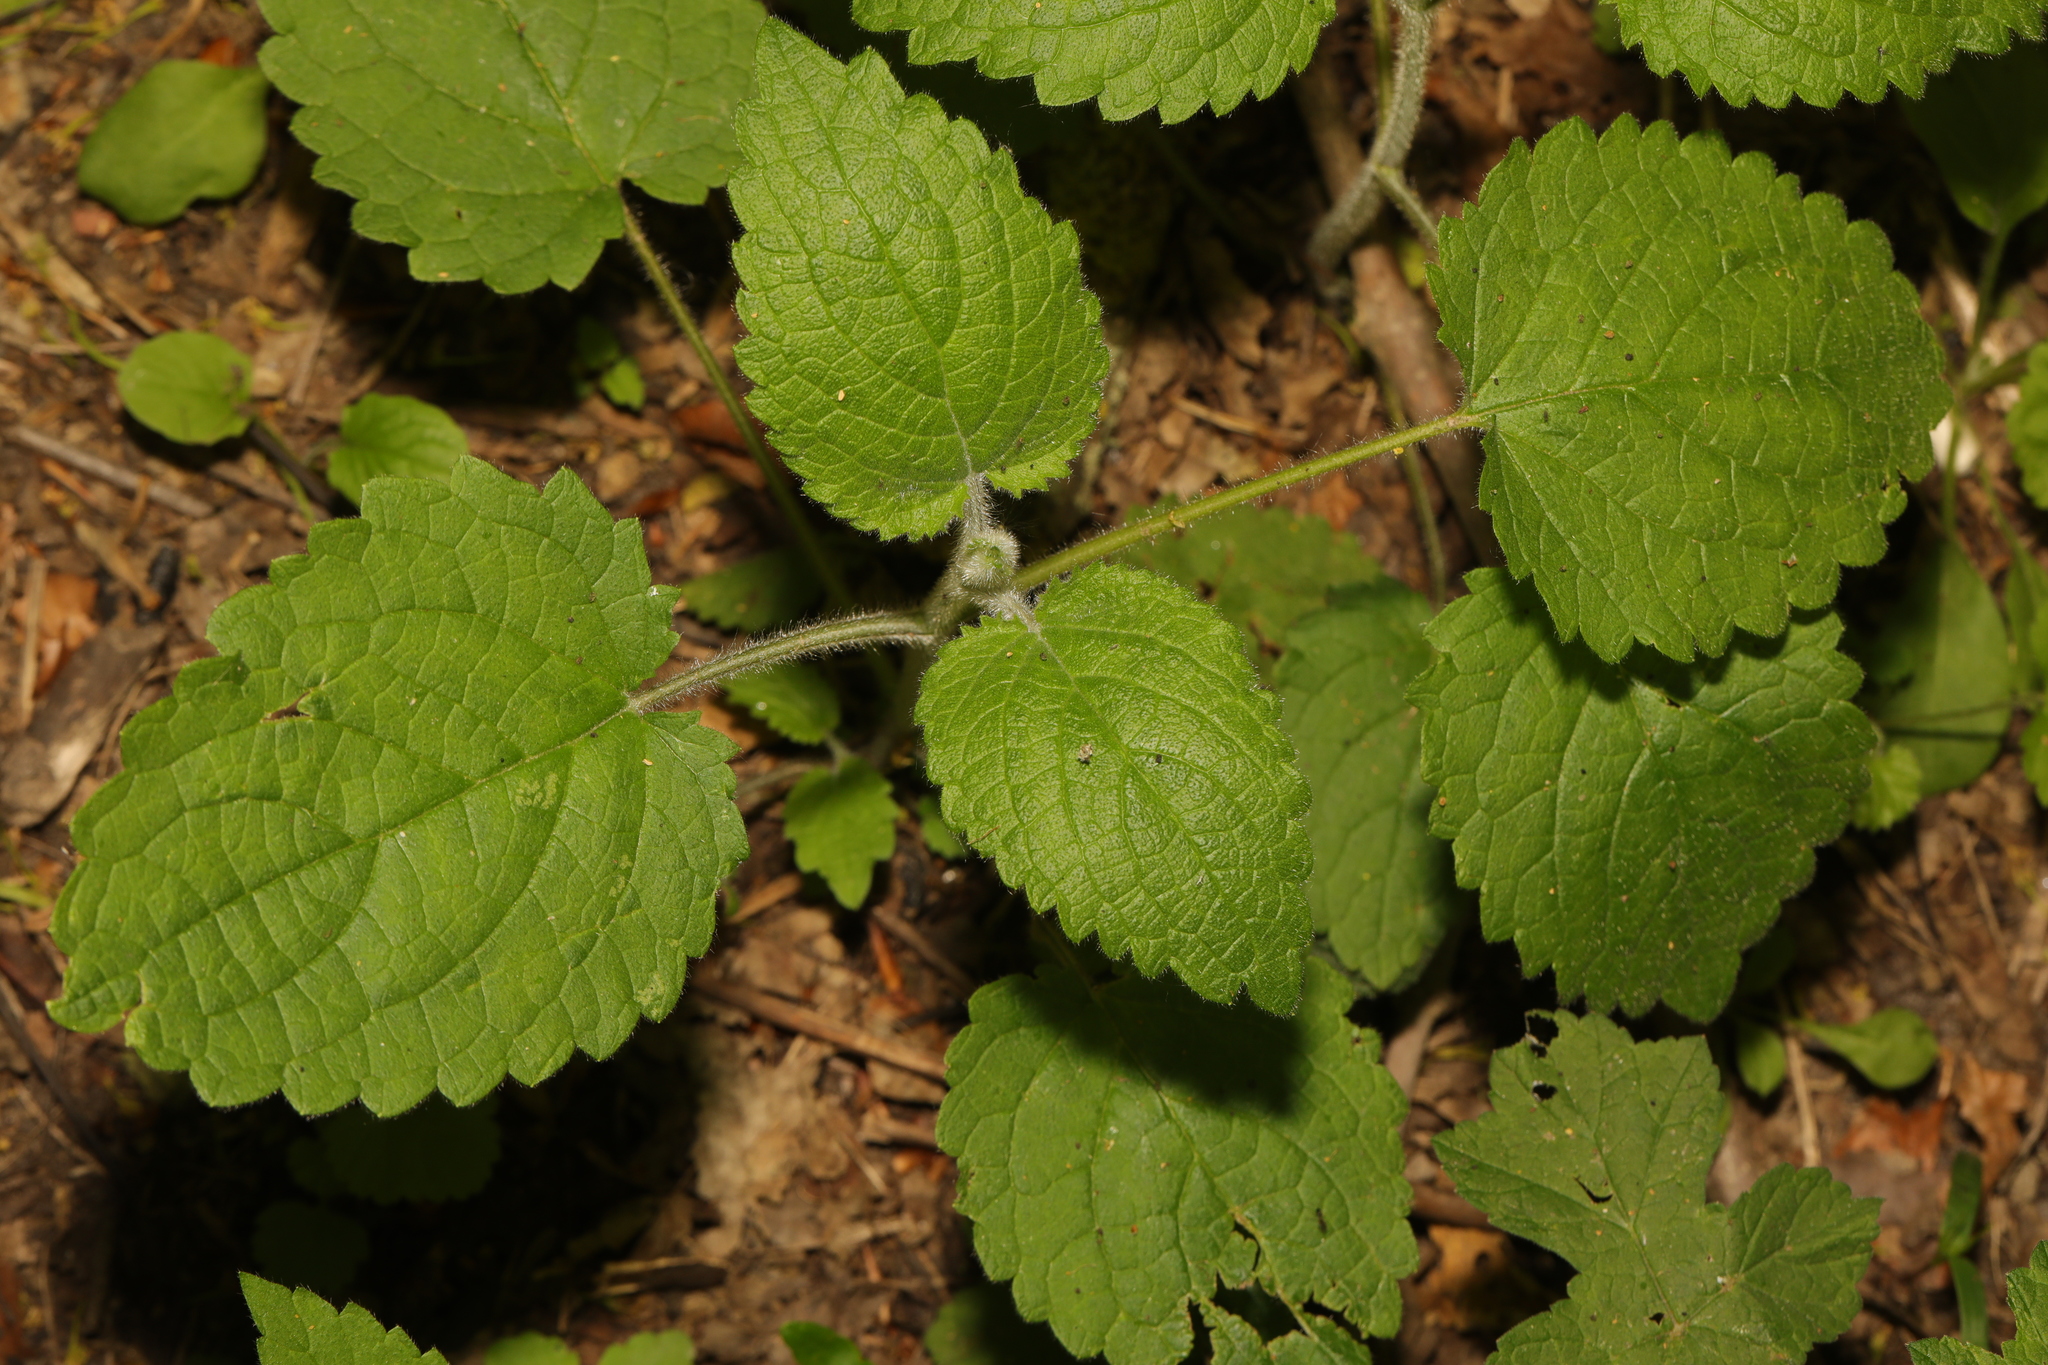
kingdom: Plantae
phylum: Tracheophyta
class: Magnoliopsida
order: Lamiales
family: Lamiaceae
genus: Stachys
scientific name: Stachys sylvatica
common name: Hedge woundwort
